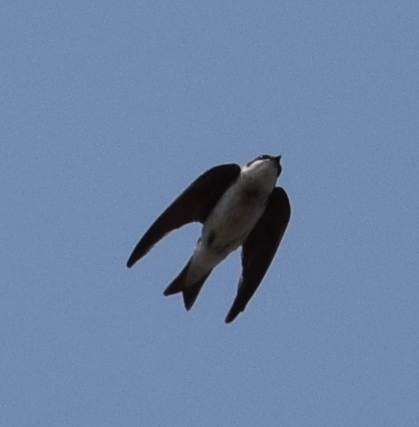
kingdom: Animalia
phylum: Chordata
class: Aves
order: Passeriformes
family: Hirundinidae
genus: Tachycineta
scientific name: Tachycineta bicolor
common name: Tree swallow
